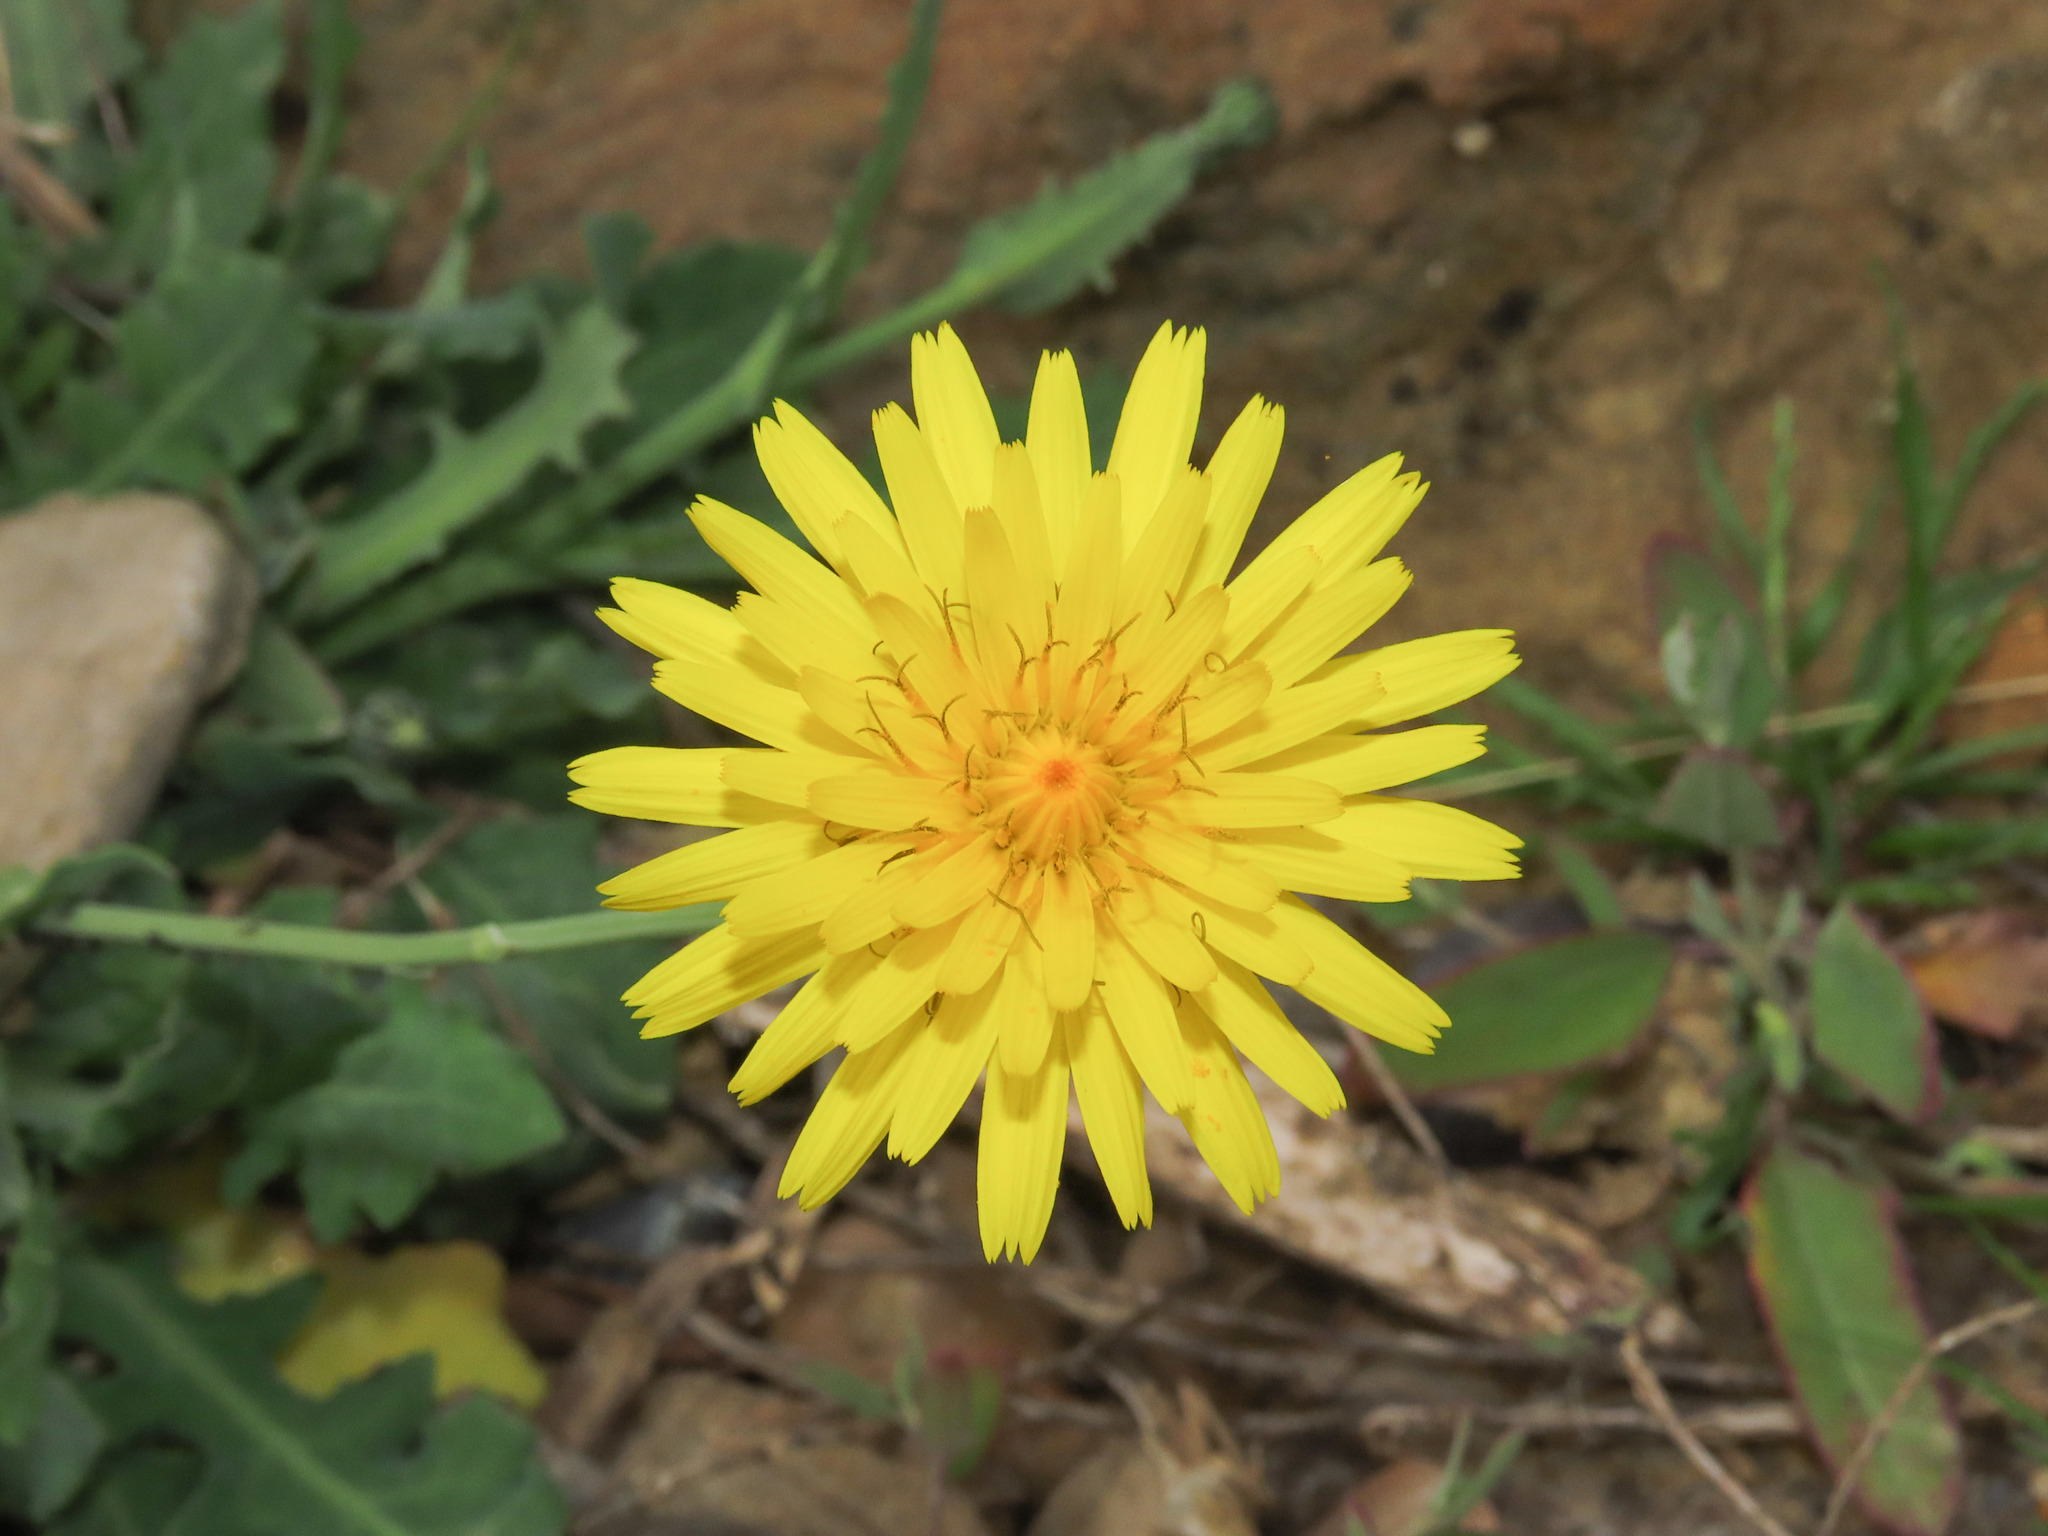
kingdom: Plantae
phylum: Tracheophyta
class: Magnoliopsida
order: Asterales
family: Asteraceae
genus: Reichardia
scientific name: Reichardia picroides
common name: Common brighteyes
